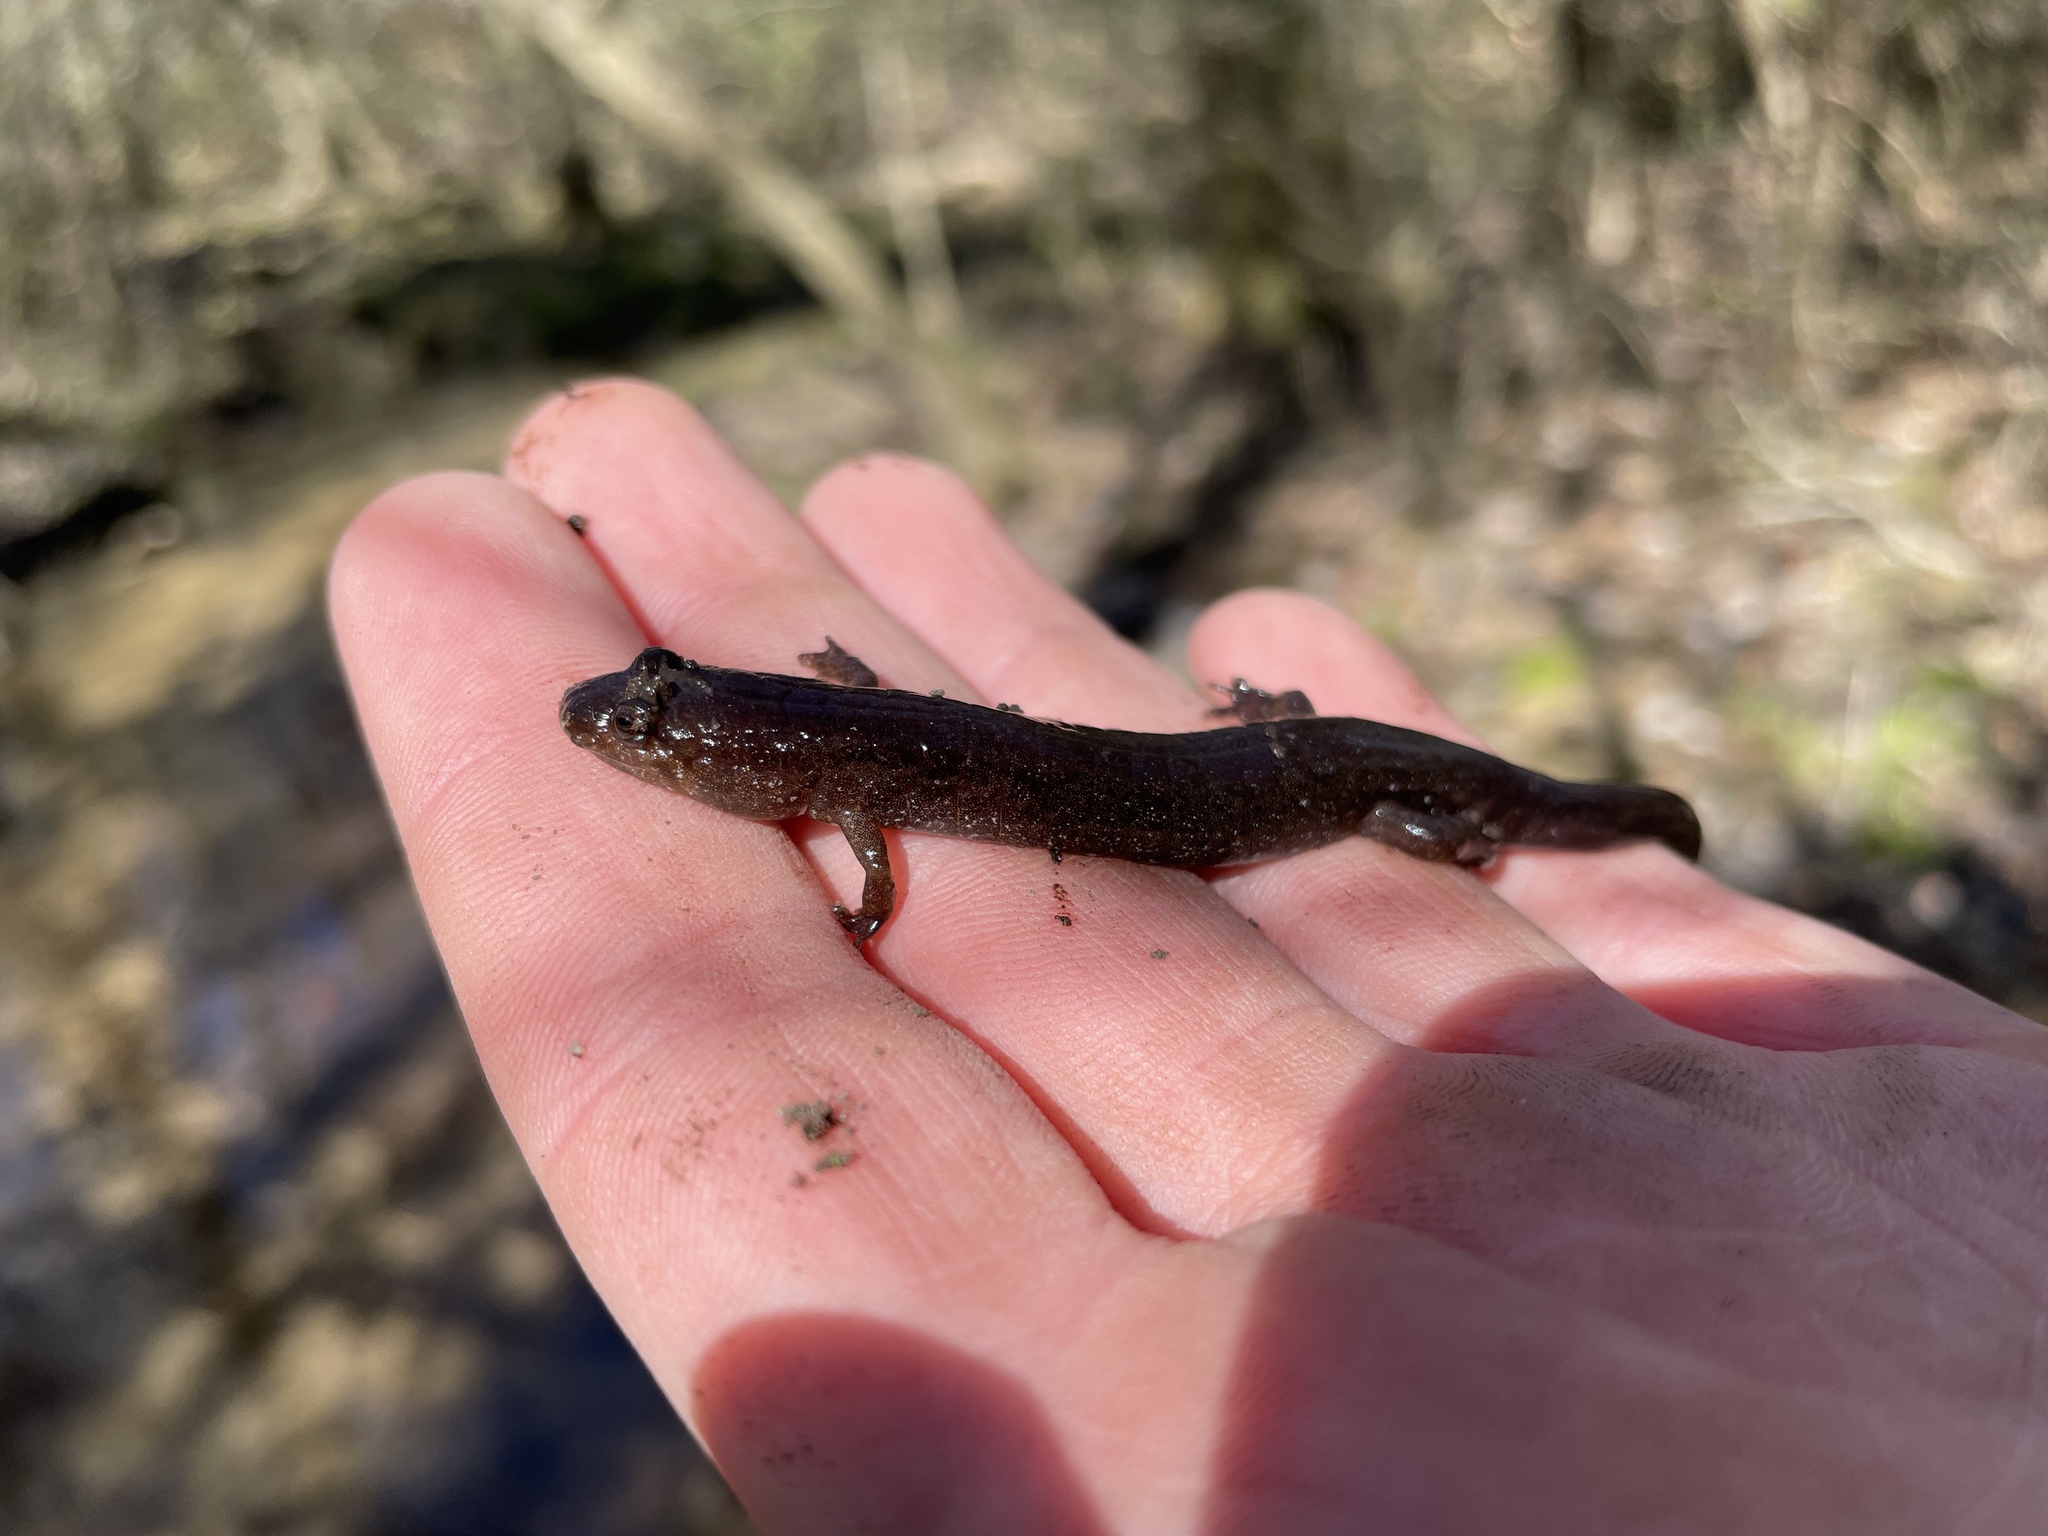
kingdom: Animalia
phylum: Chordata
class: Amphibia
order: Caudata
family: Plethodontidae
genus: Desmognathus
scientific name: Desmognathus conanti
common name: Spotted dusky salamander
